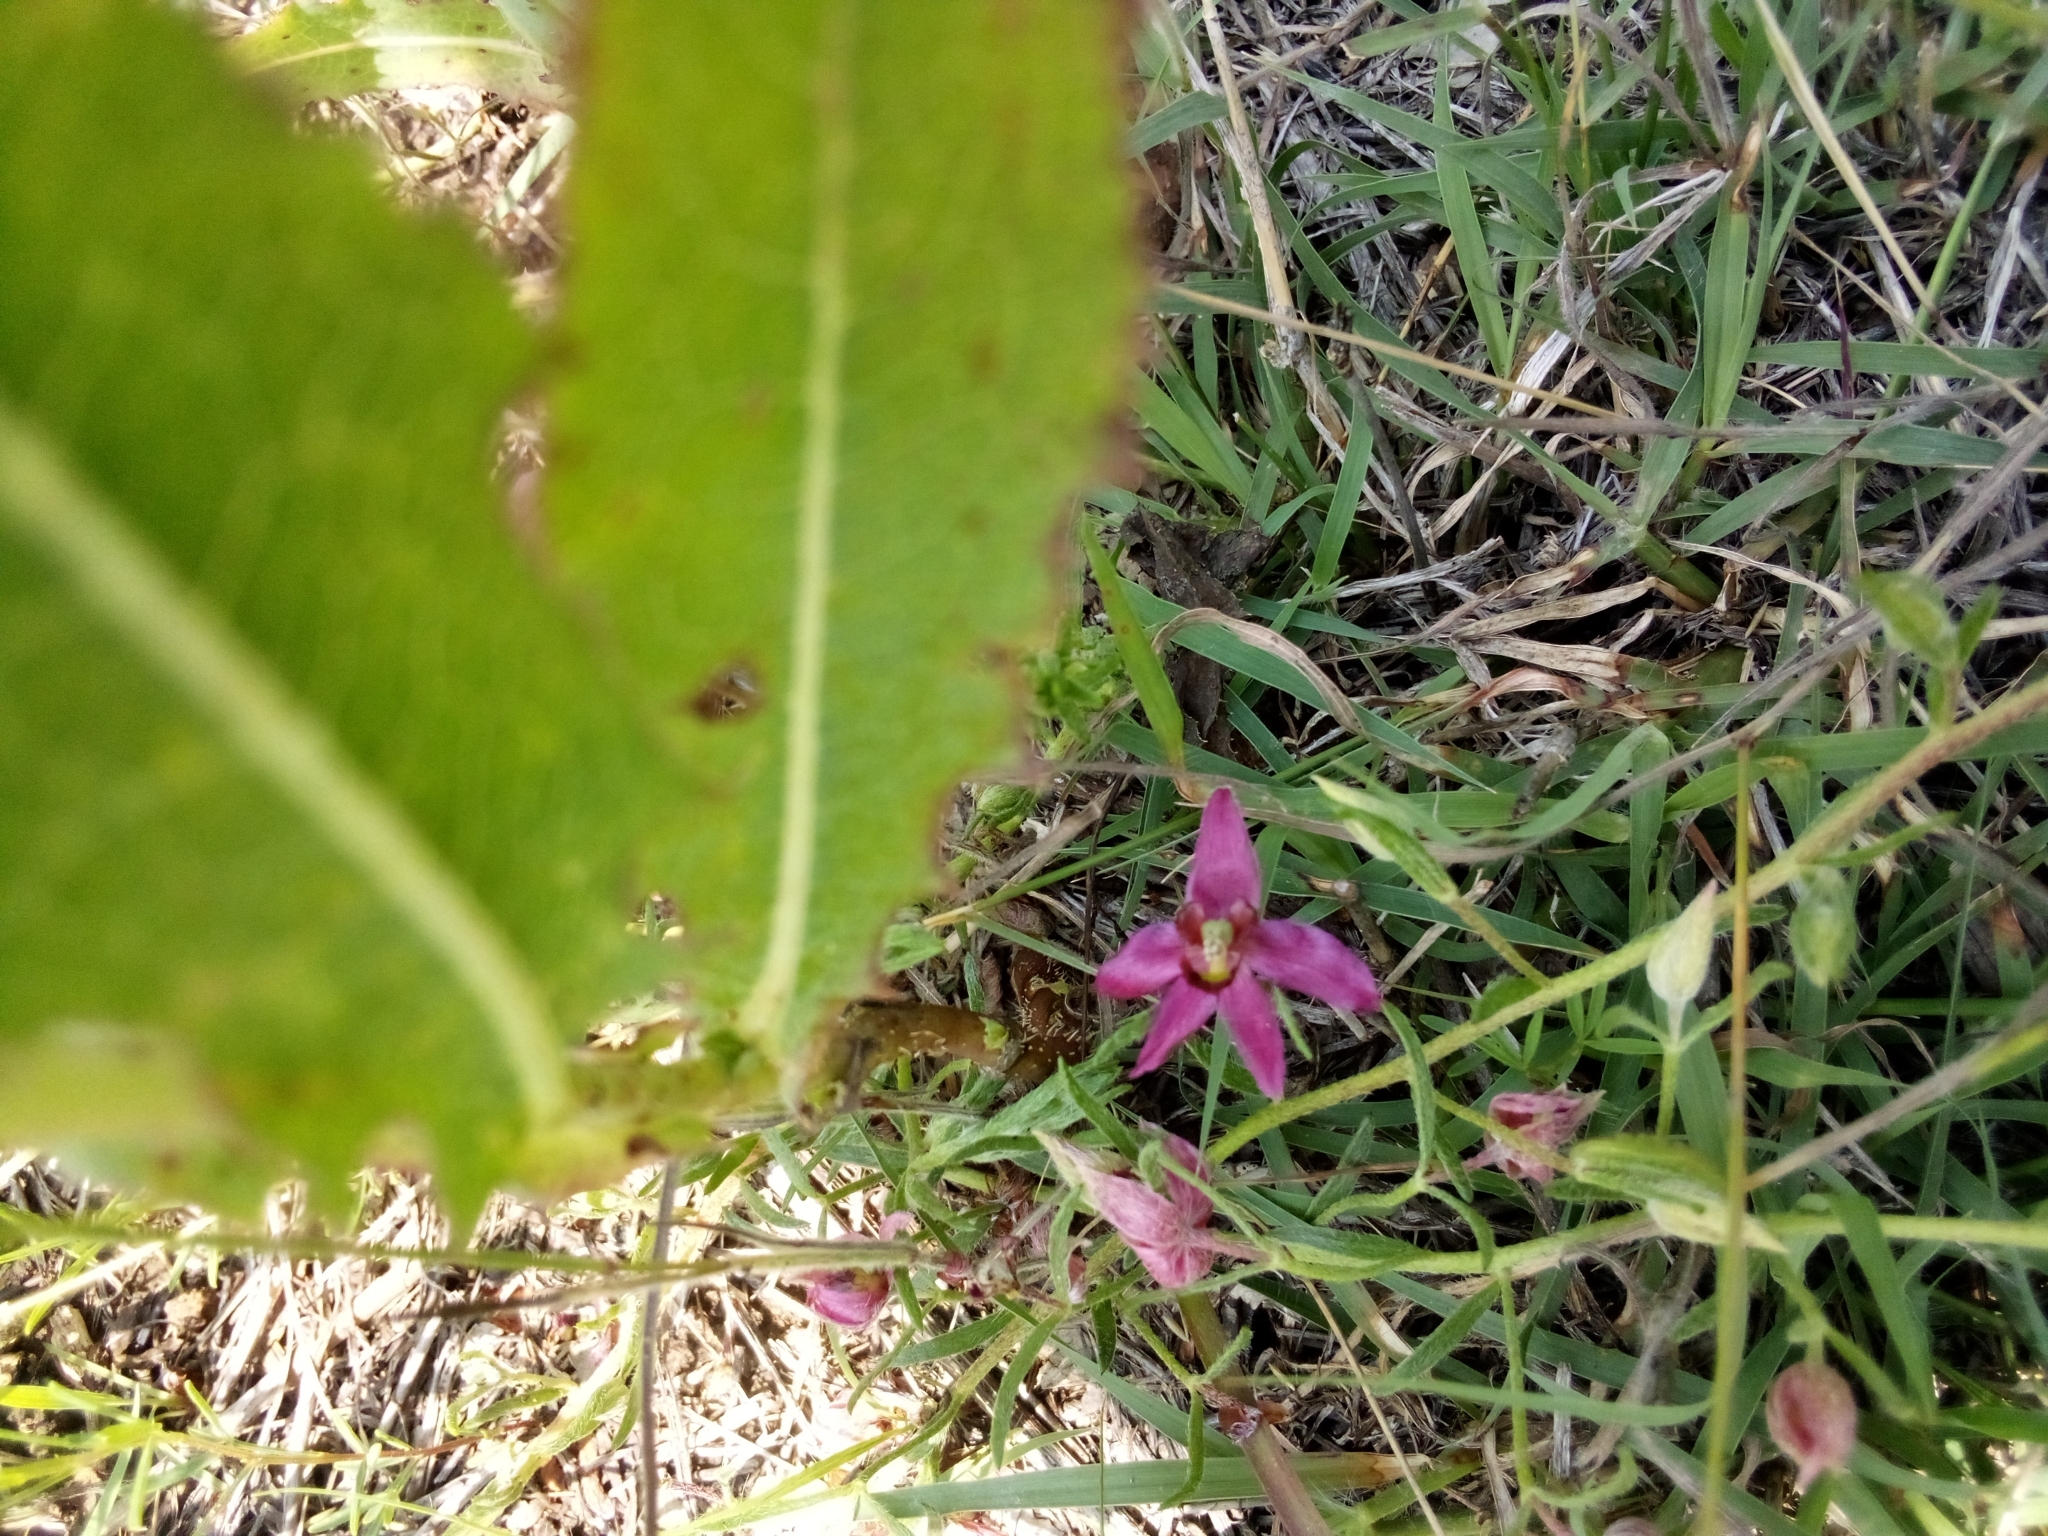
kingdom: Plantae
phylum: Tracheophyta
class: Magnoliopsida
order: Zygophyllales
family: Krameriaceae
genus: Krameria
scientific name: Krameria lanceolata
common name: Ratany
